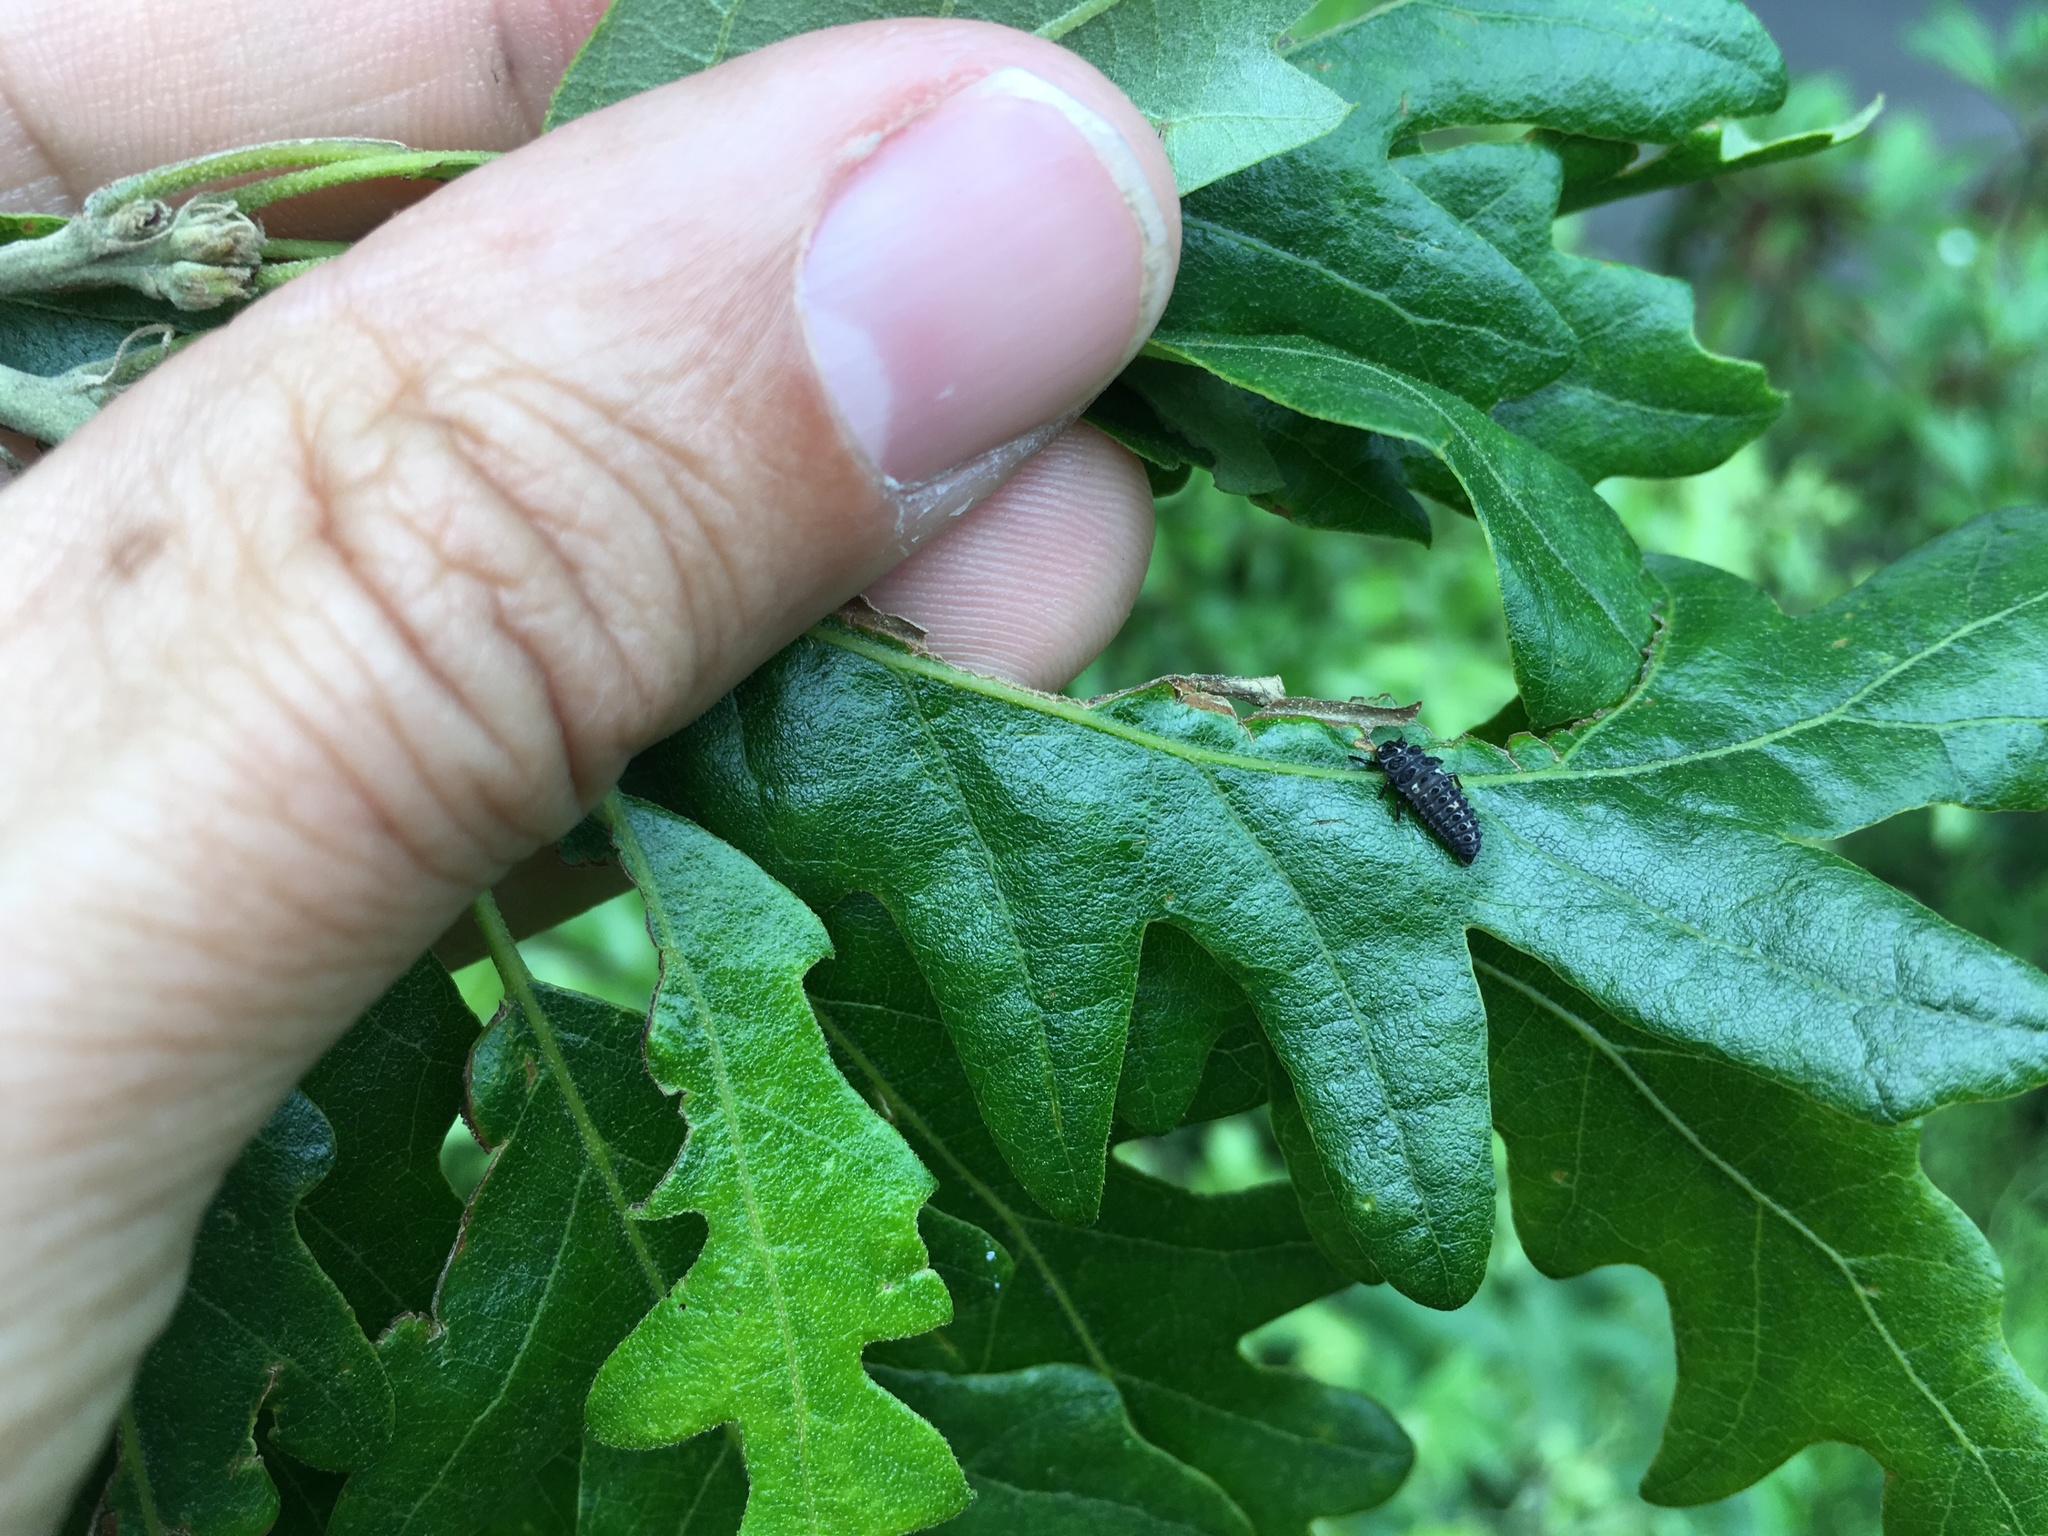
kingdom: Animalia
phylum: Arthropoda
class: Insecta
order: Coleoptera
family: Coccinellidae
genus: Adalia
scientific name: Adalia bipunctata
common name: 2-spot ladybird
